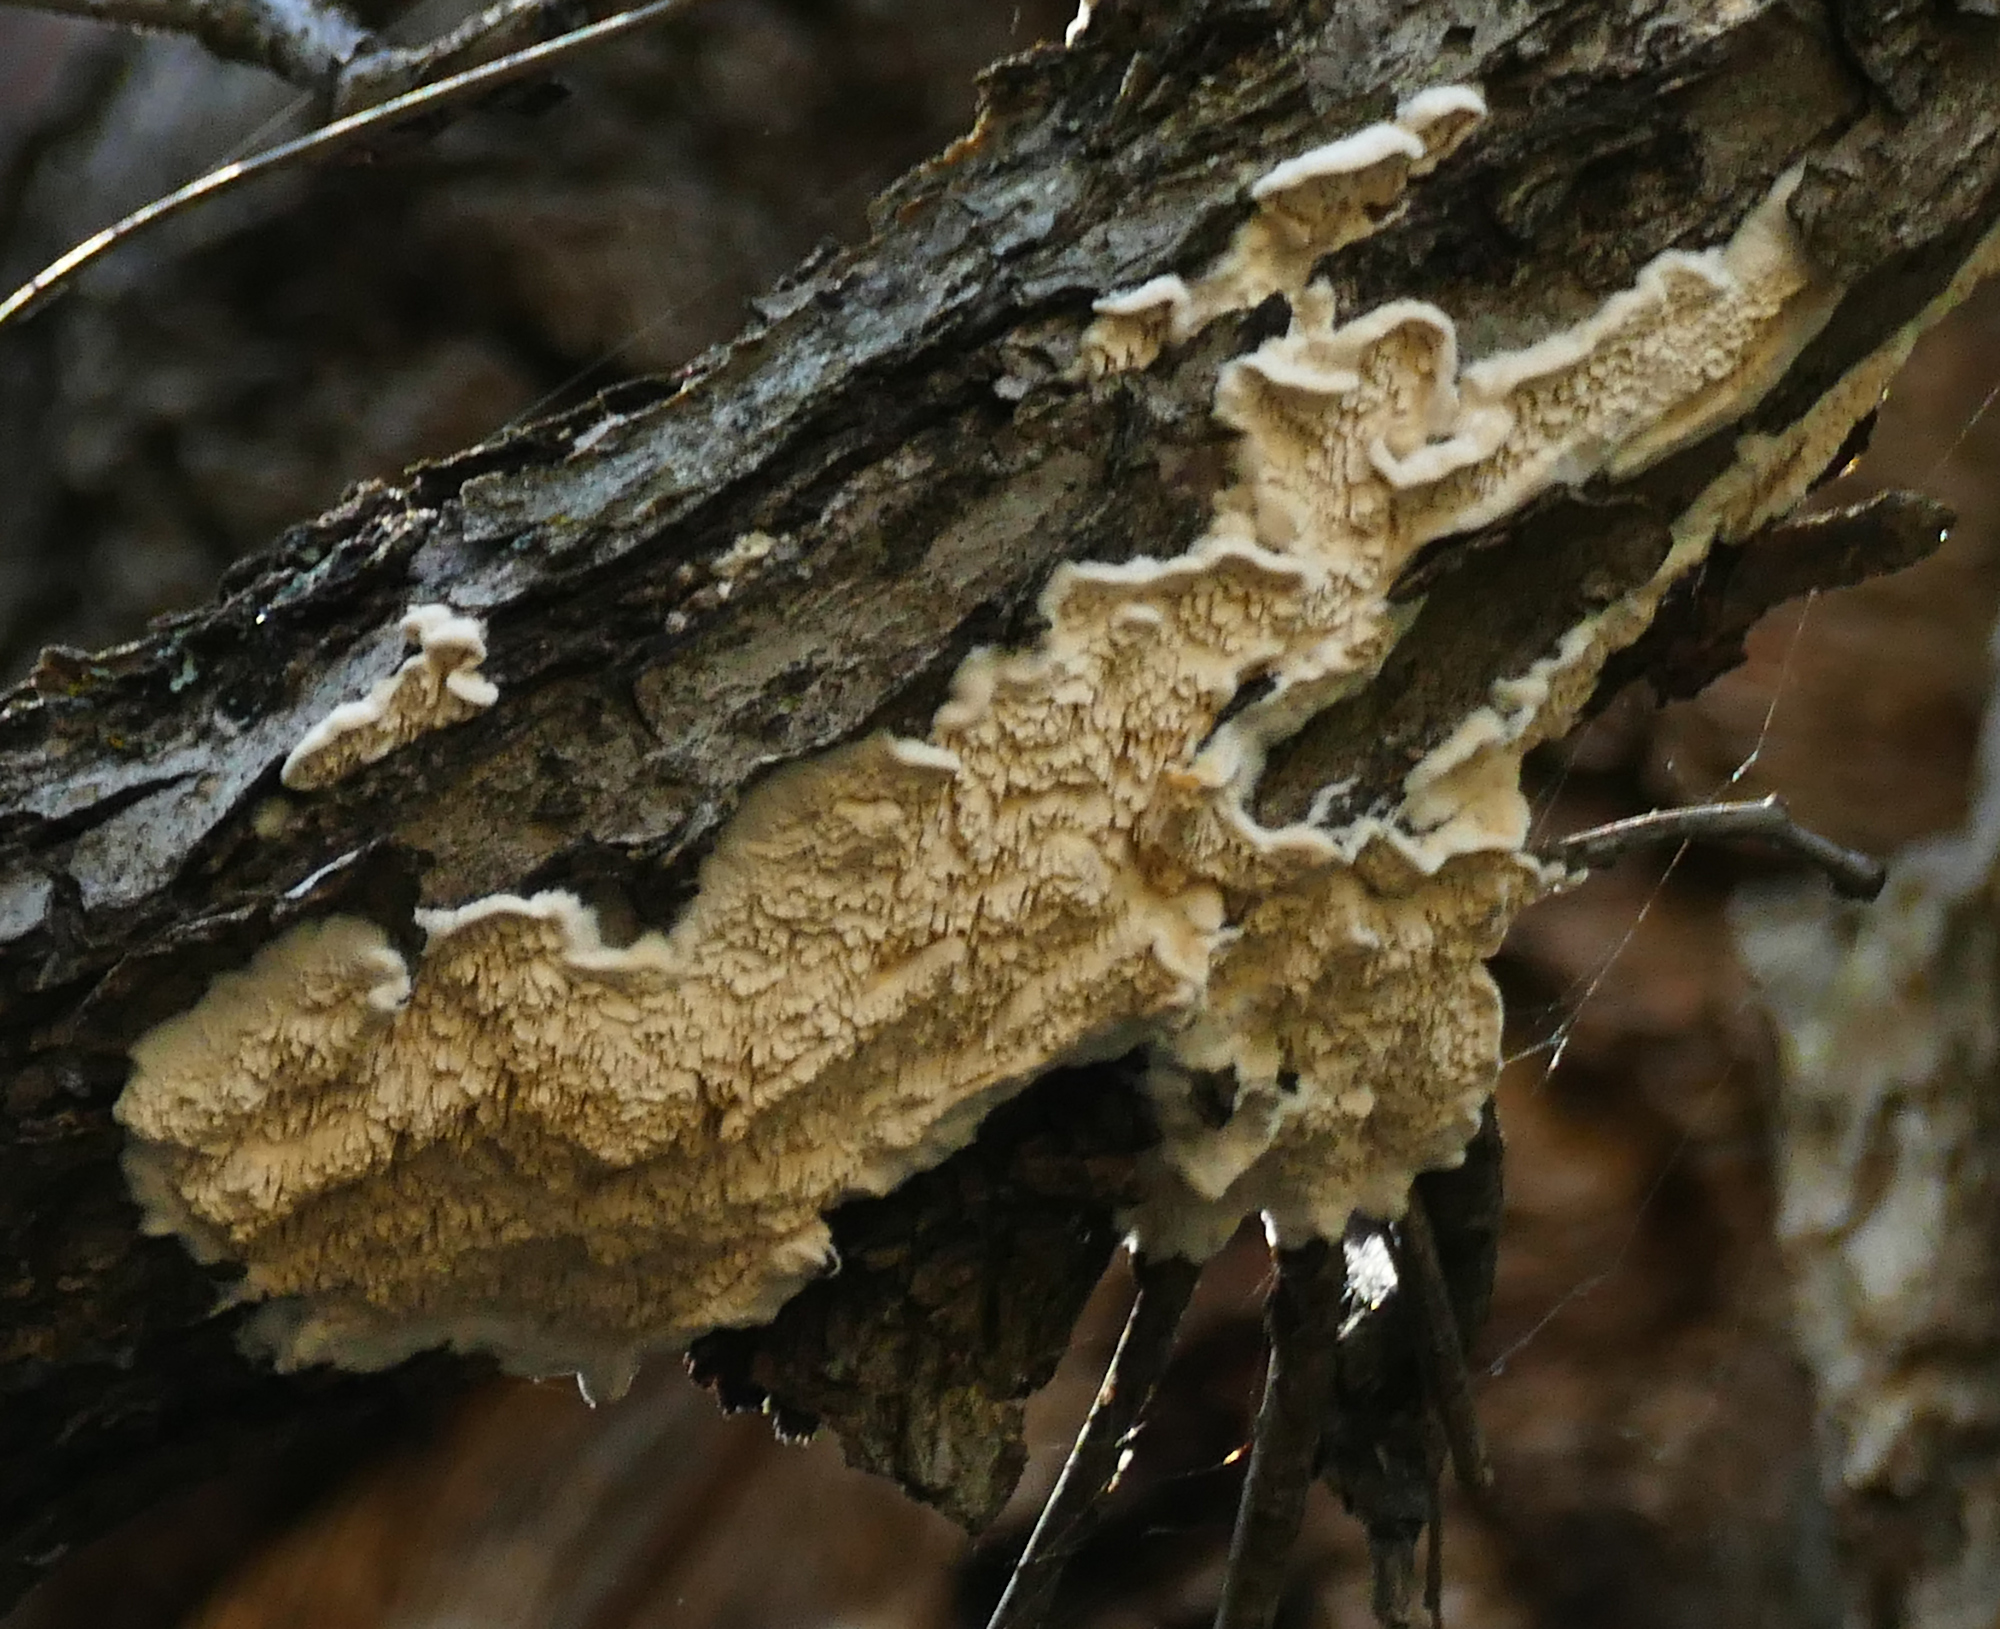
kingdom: Fungi
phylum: Basidiomycota
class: Agaricomycetes
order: Polyporales
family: Irpicaceae
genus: Irpex
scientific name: Irpex lacteus
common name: Milk-white toothed polypore
